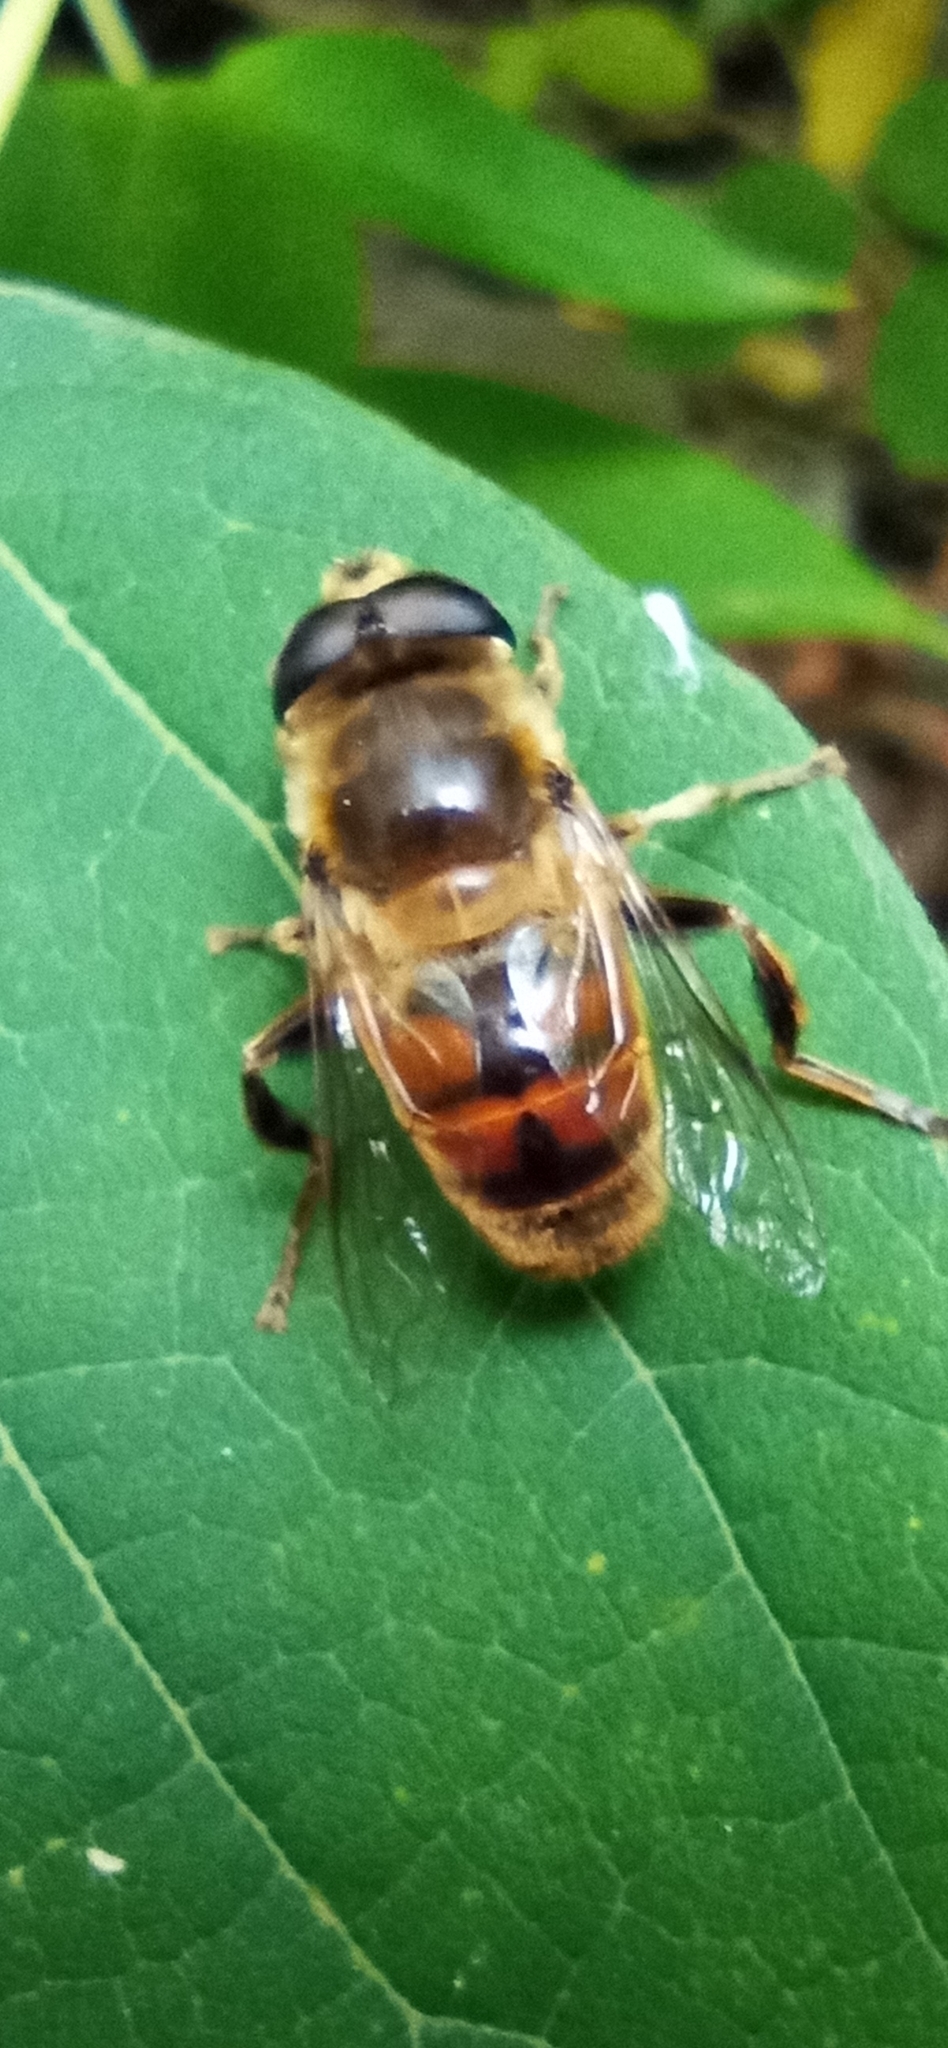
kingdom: Animalia
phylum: Arthropoda
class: Insecta
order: Diptera
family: Syrphidae
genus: Eristalis
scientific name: Eristalis tenax
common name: Drone fly
